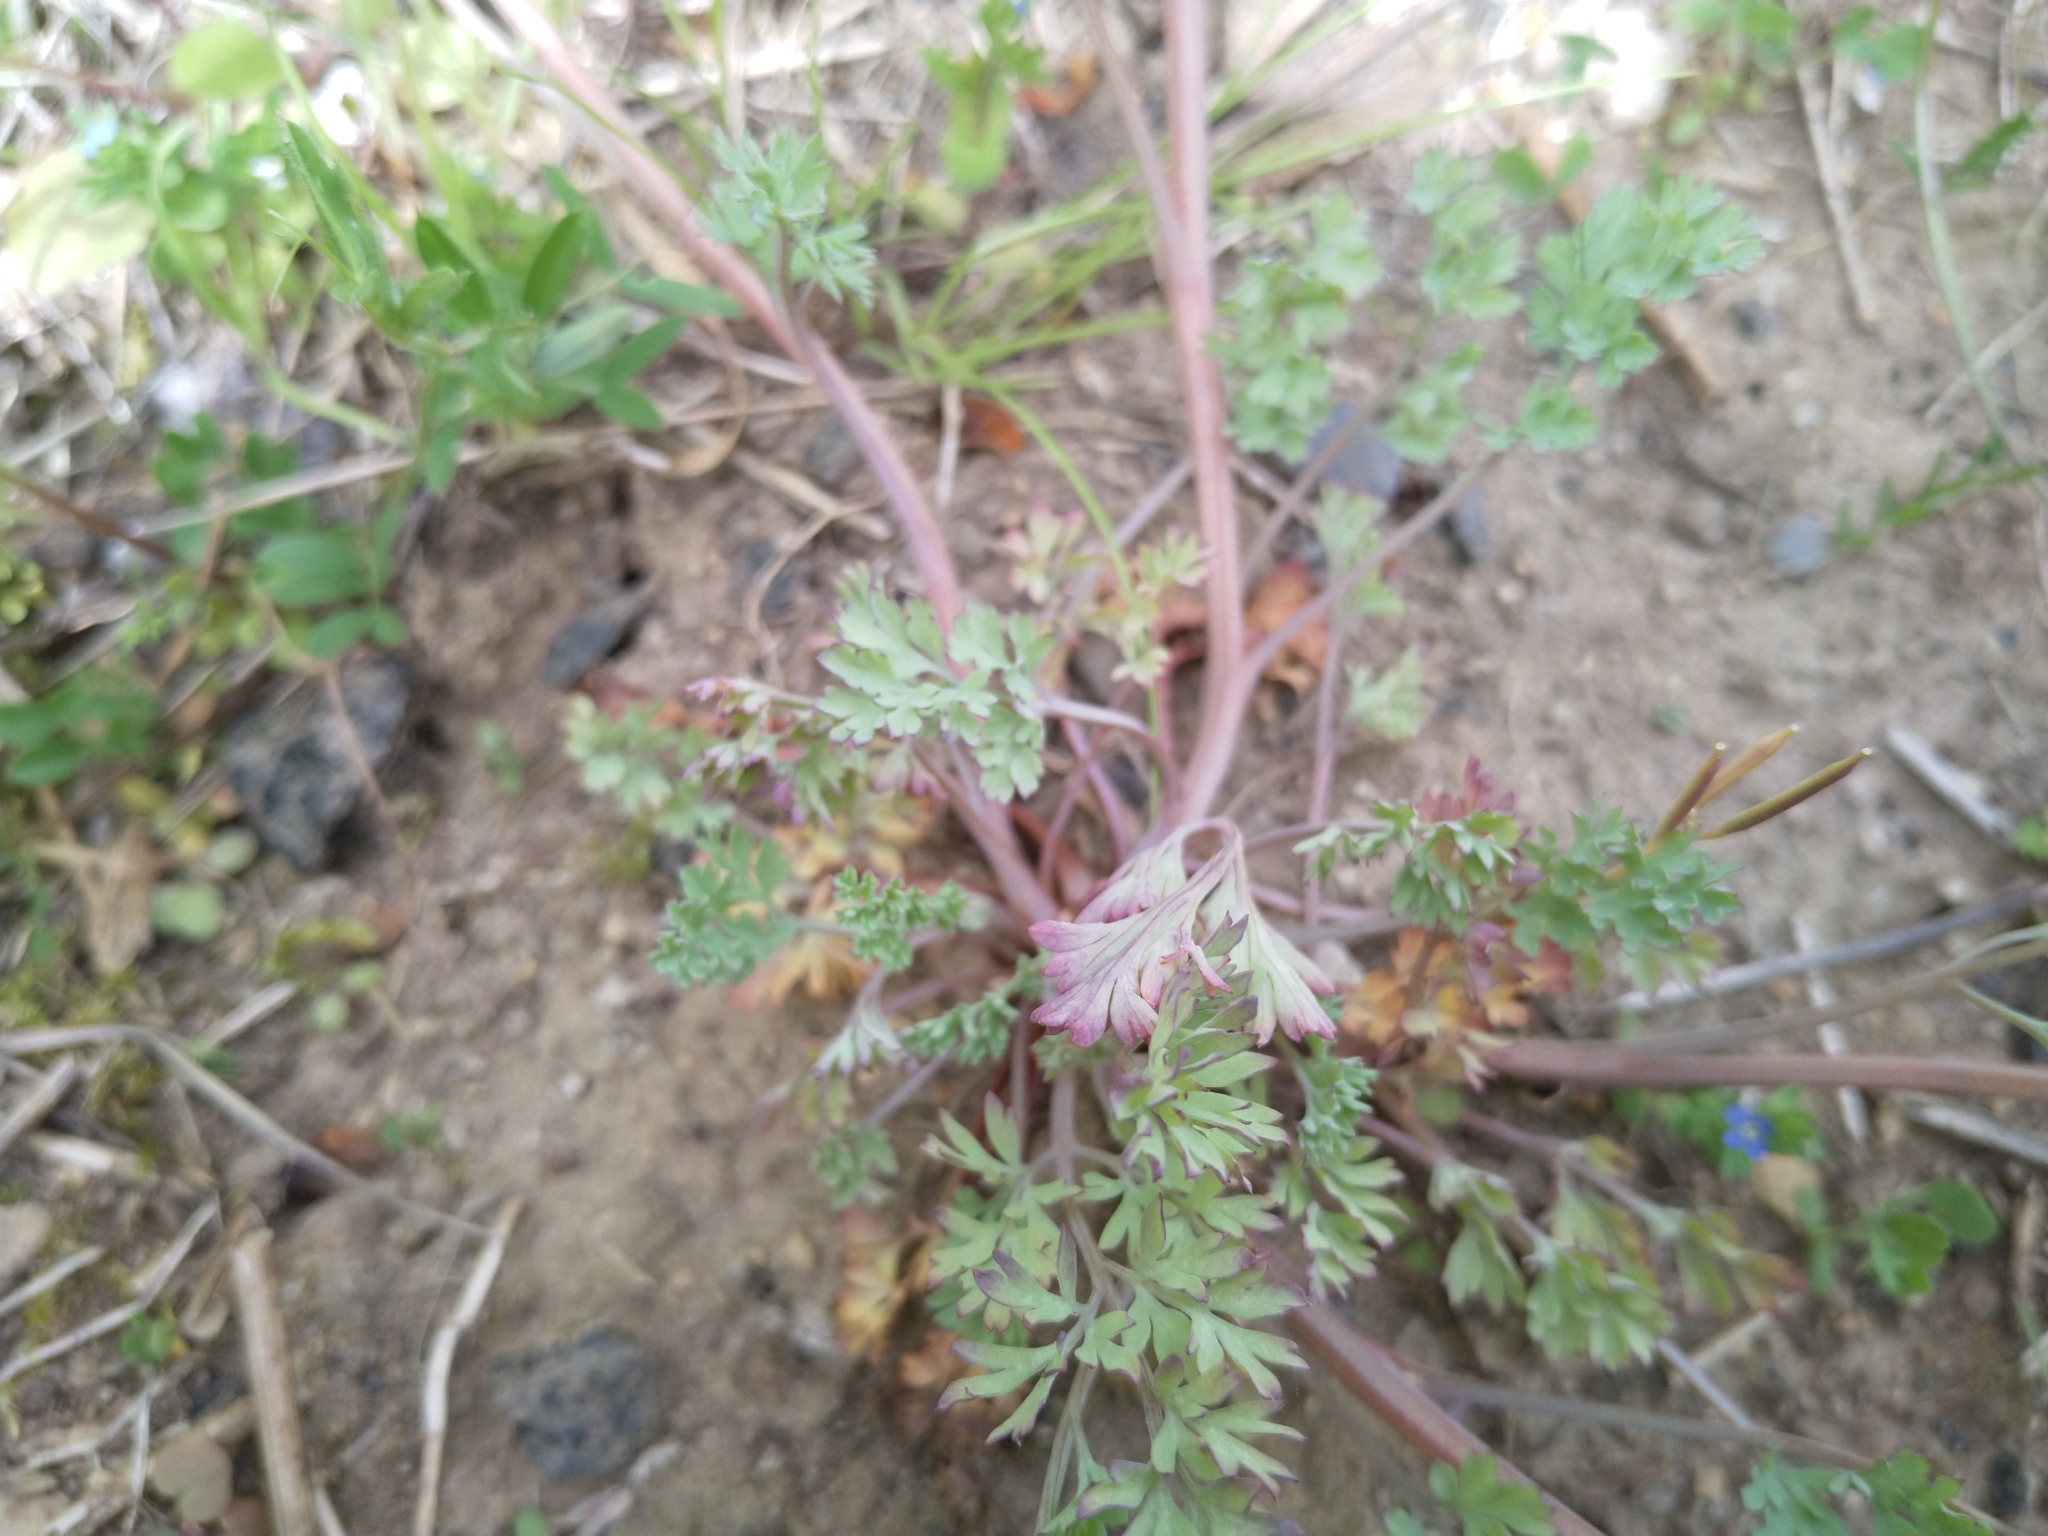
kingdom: Plantae
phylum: Tracheophyta
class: Magnoliopsida
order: Ranunculales
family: Papaveraceae
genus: Fumaria
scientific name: Fumaria officinalis
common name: Common fumitory
